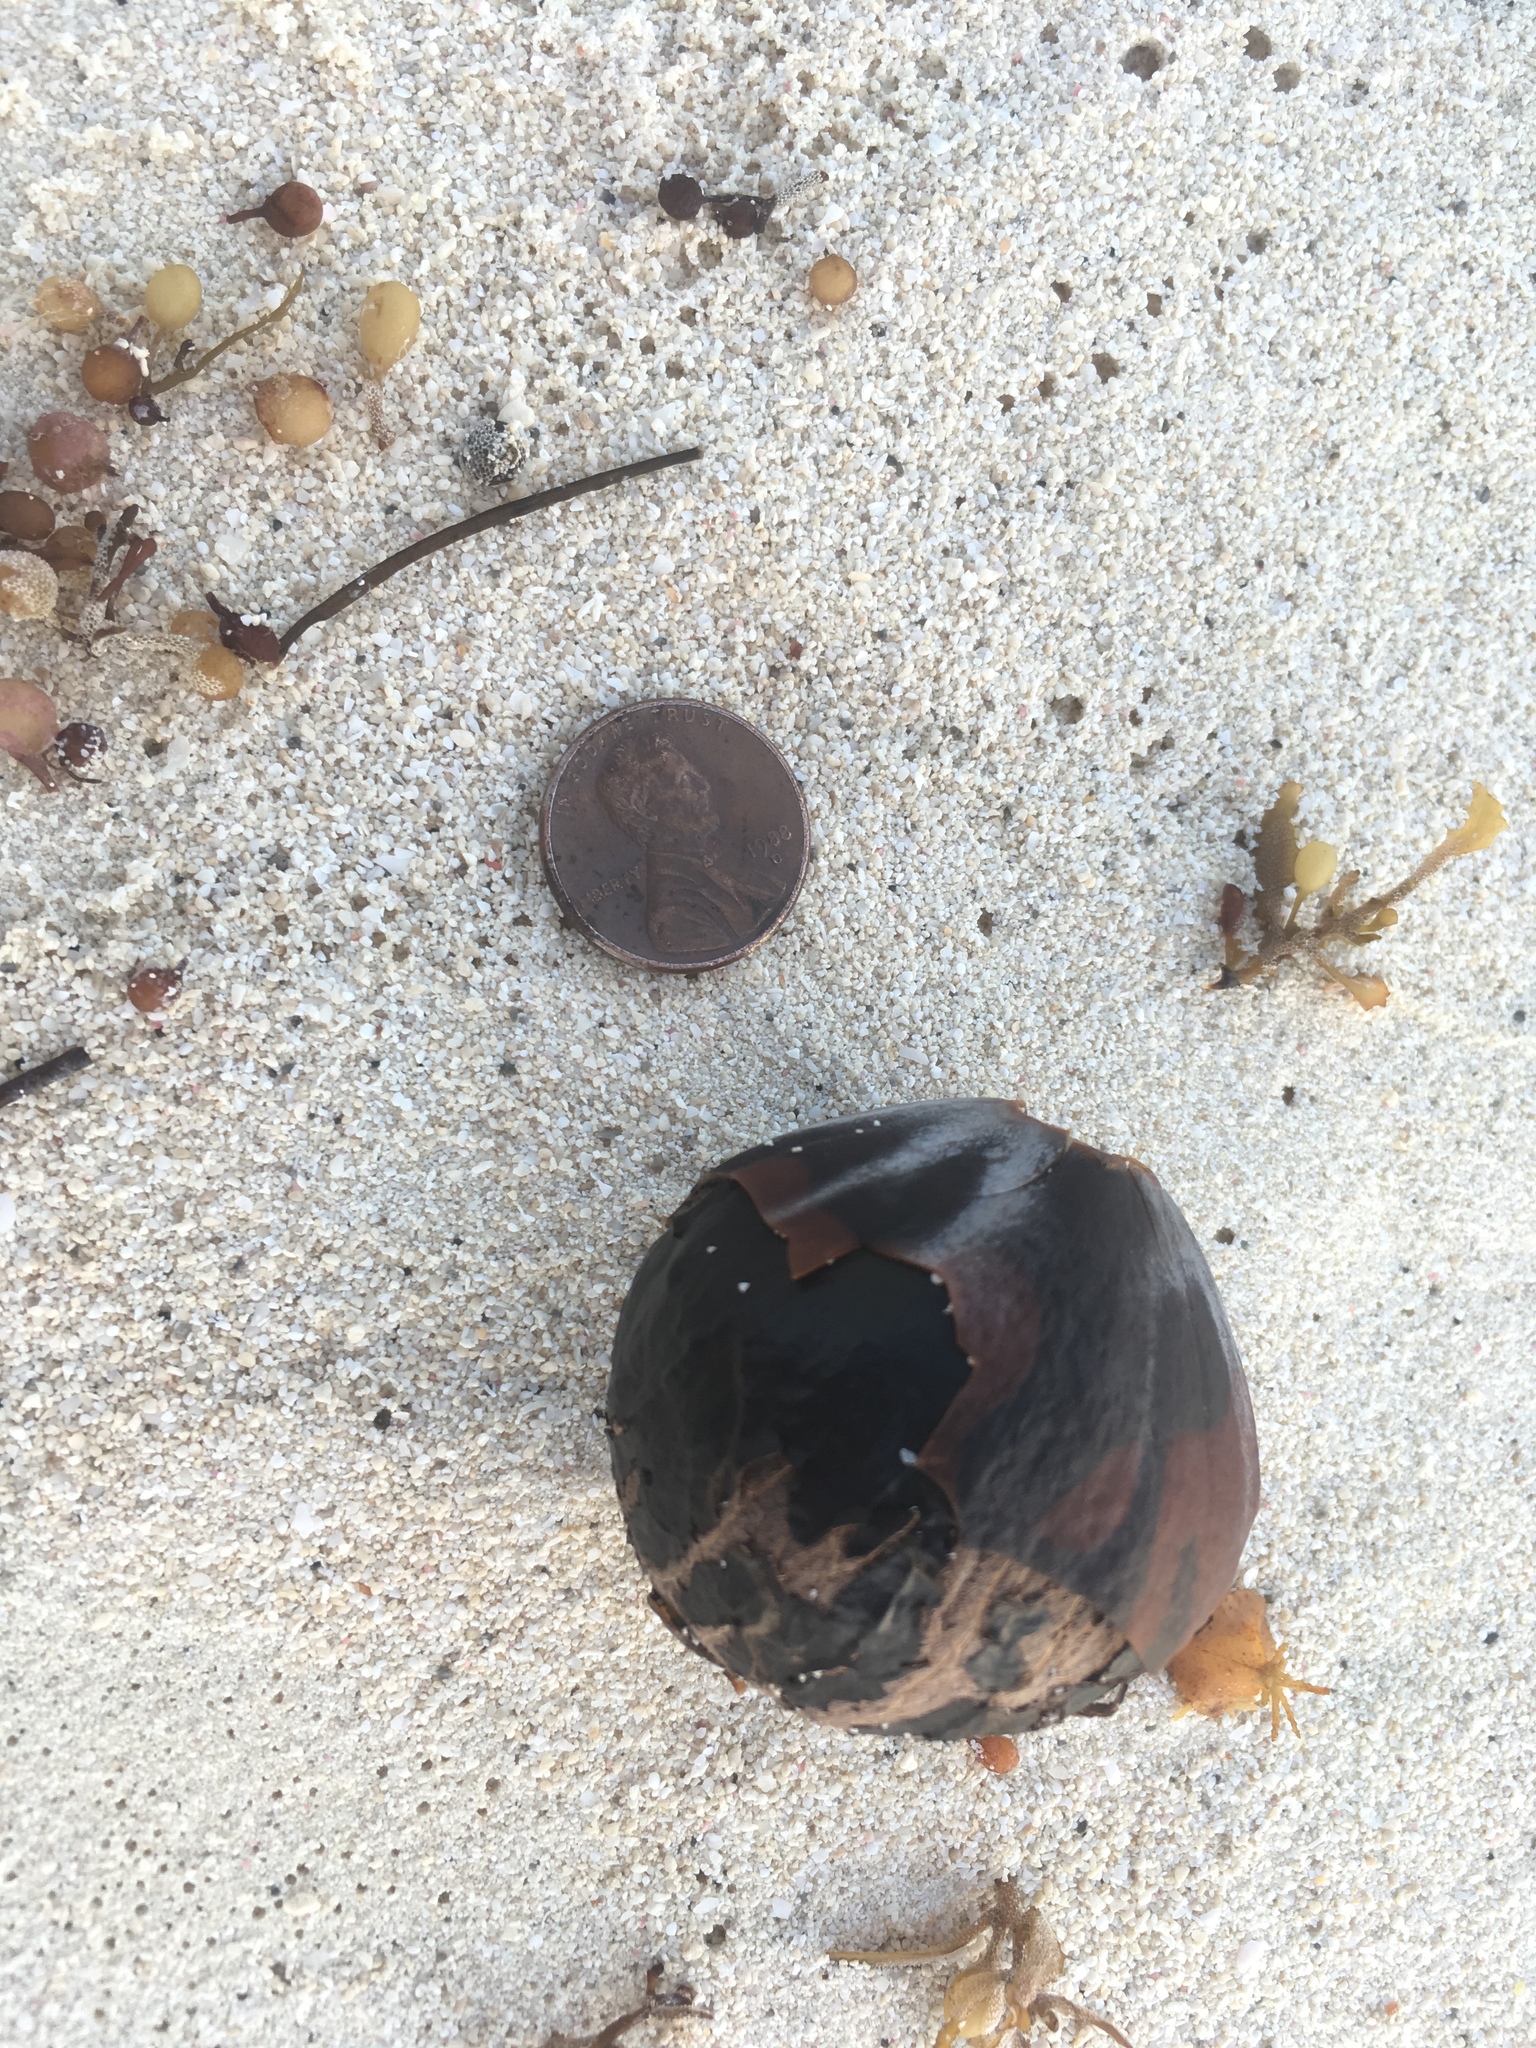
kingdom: Plantae
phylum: Tracheophyta
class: Liliopsida
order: Arecales
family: Arecaceae
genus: Manicaria
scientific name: Manicaria saccifera
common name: Sea coconut
